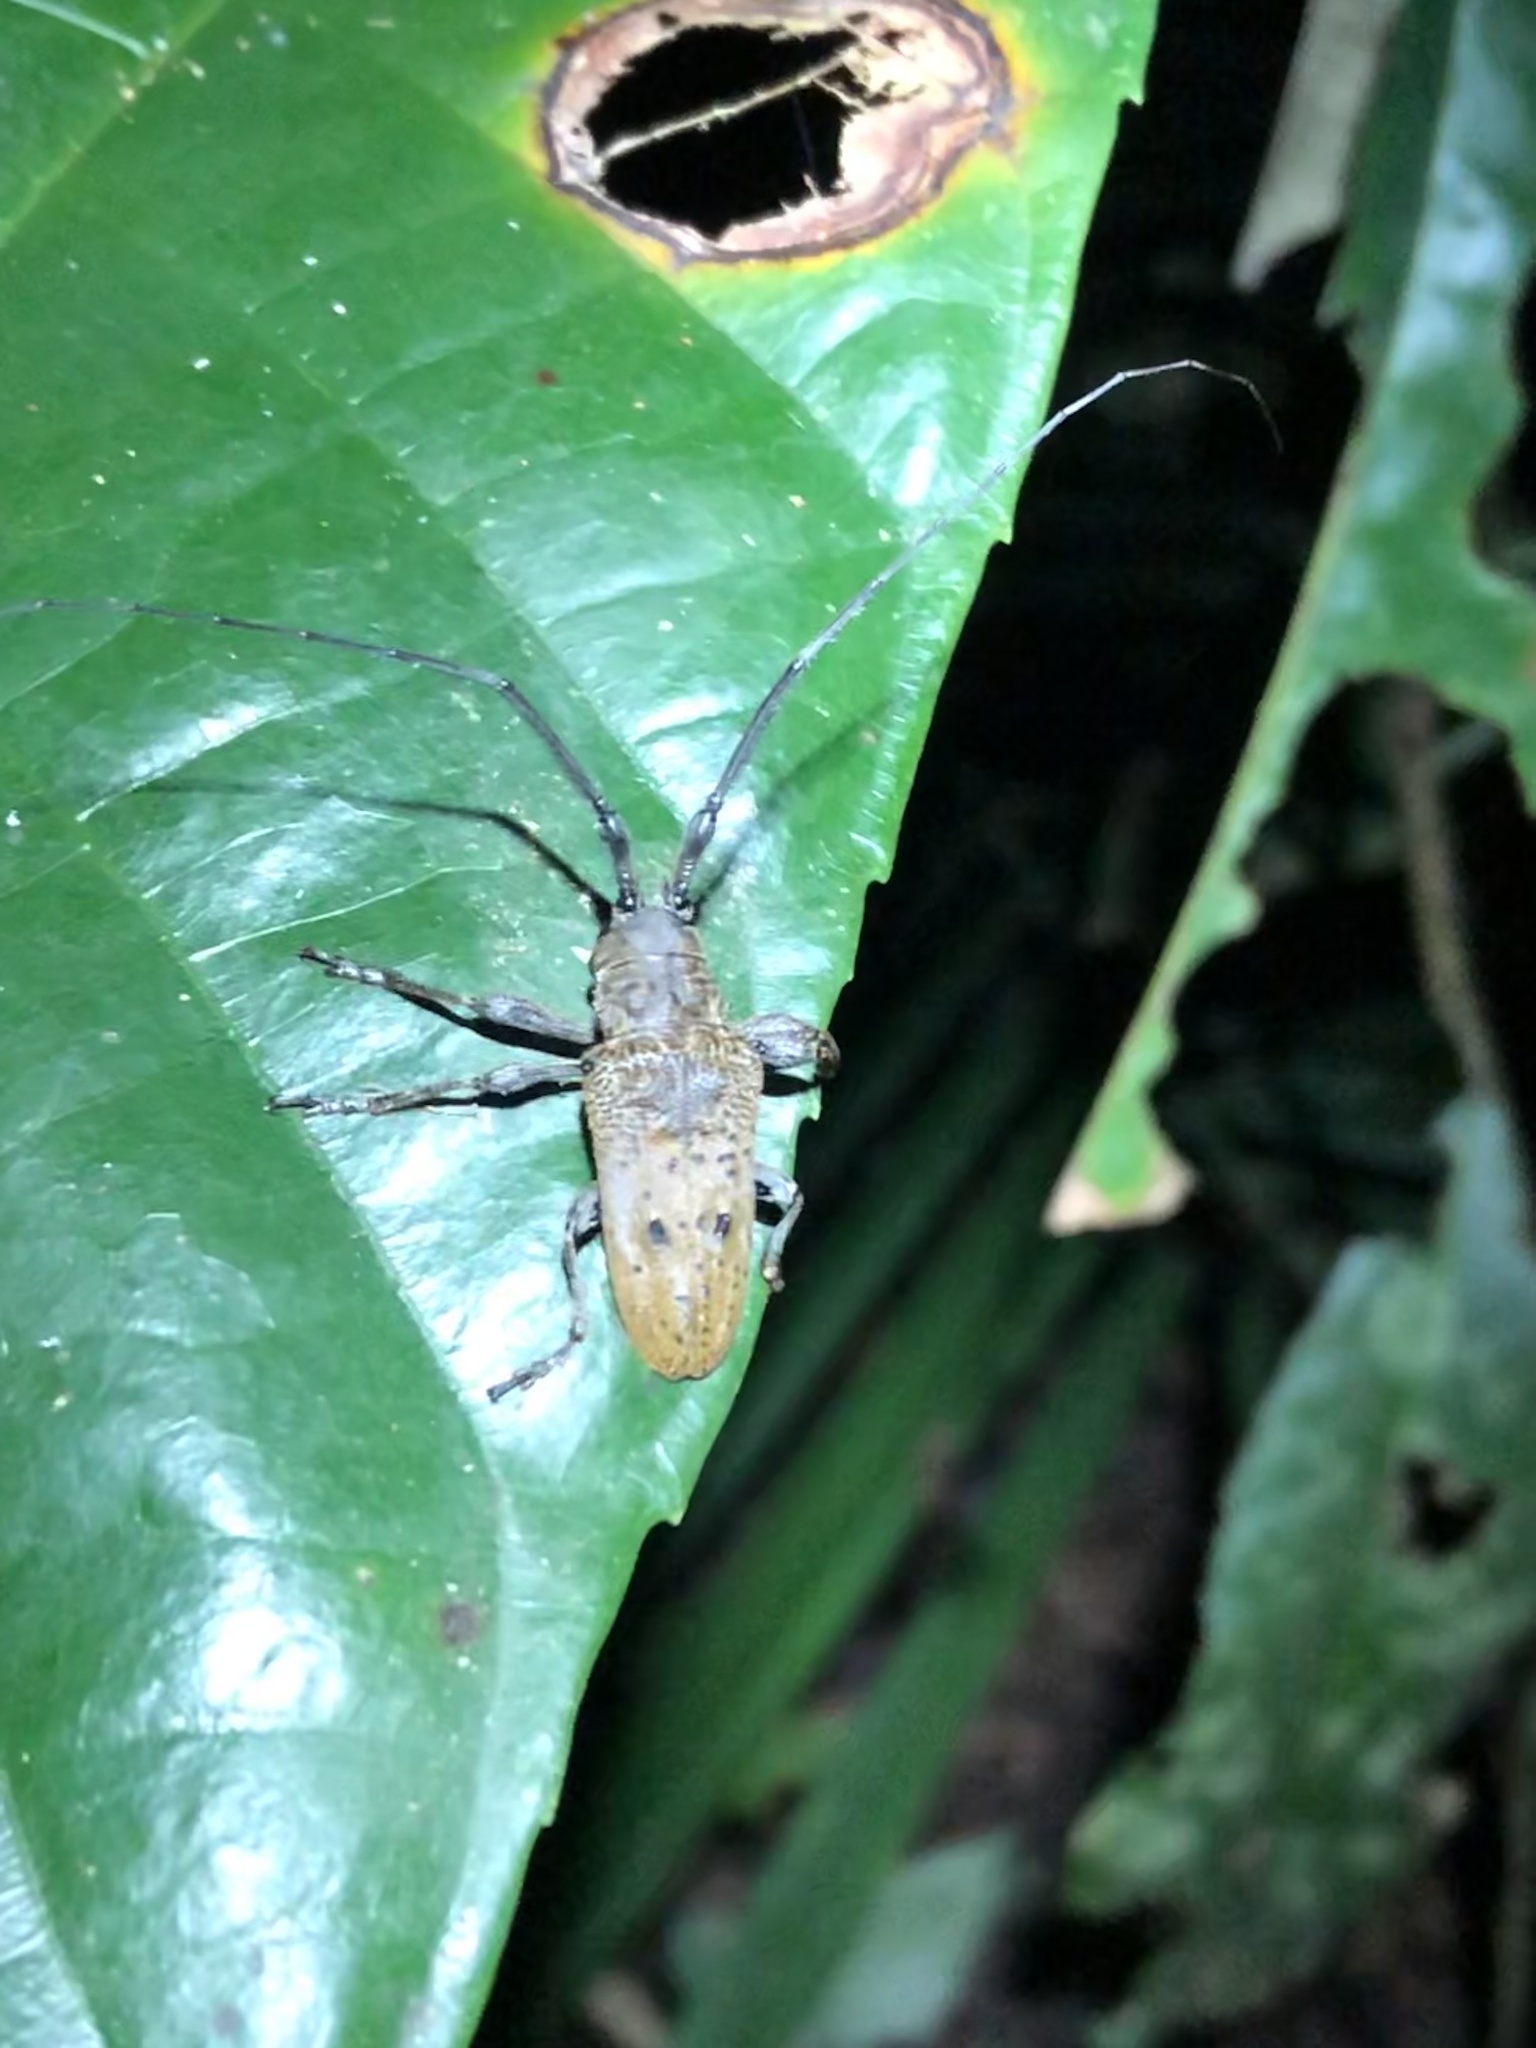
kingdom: Animalia
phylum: Arthropoda
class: Insecta
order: Coleoptera
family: Cerambycidae
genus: Tybalmia
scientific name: Tybalmia pupillata
